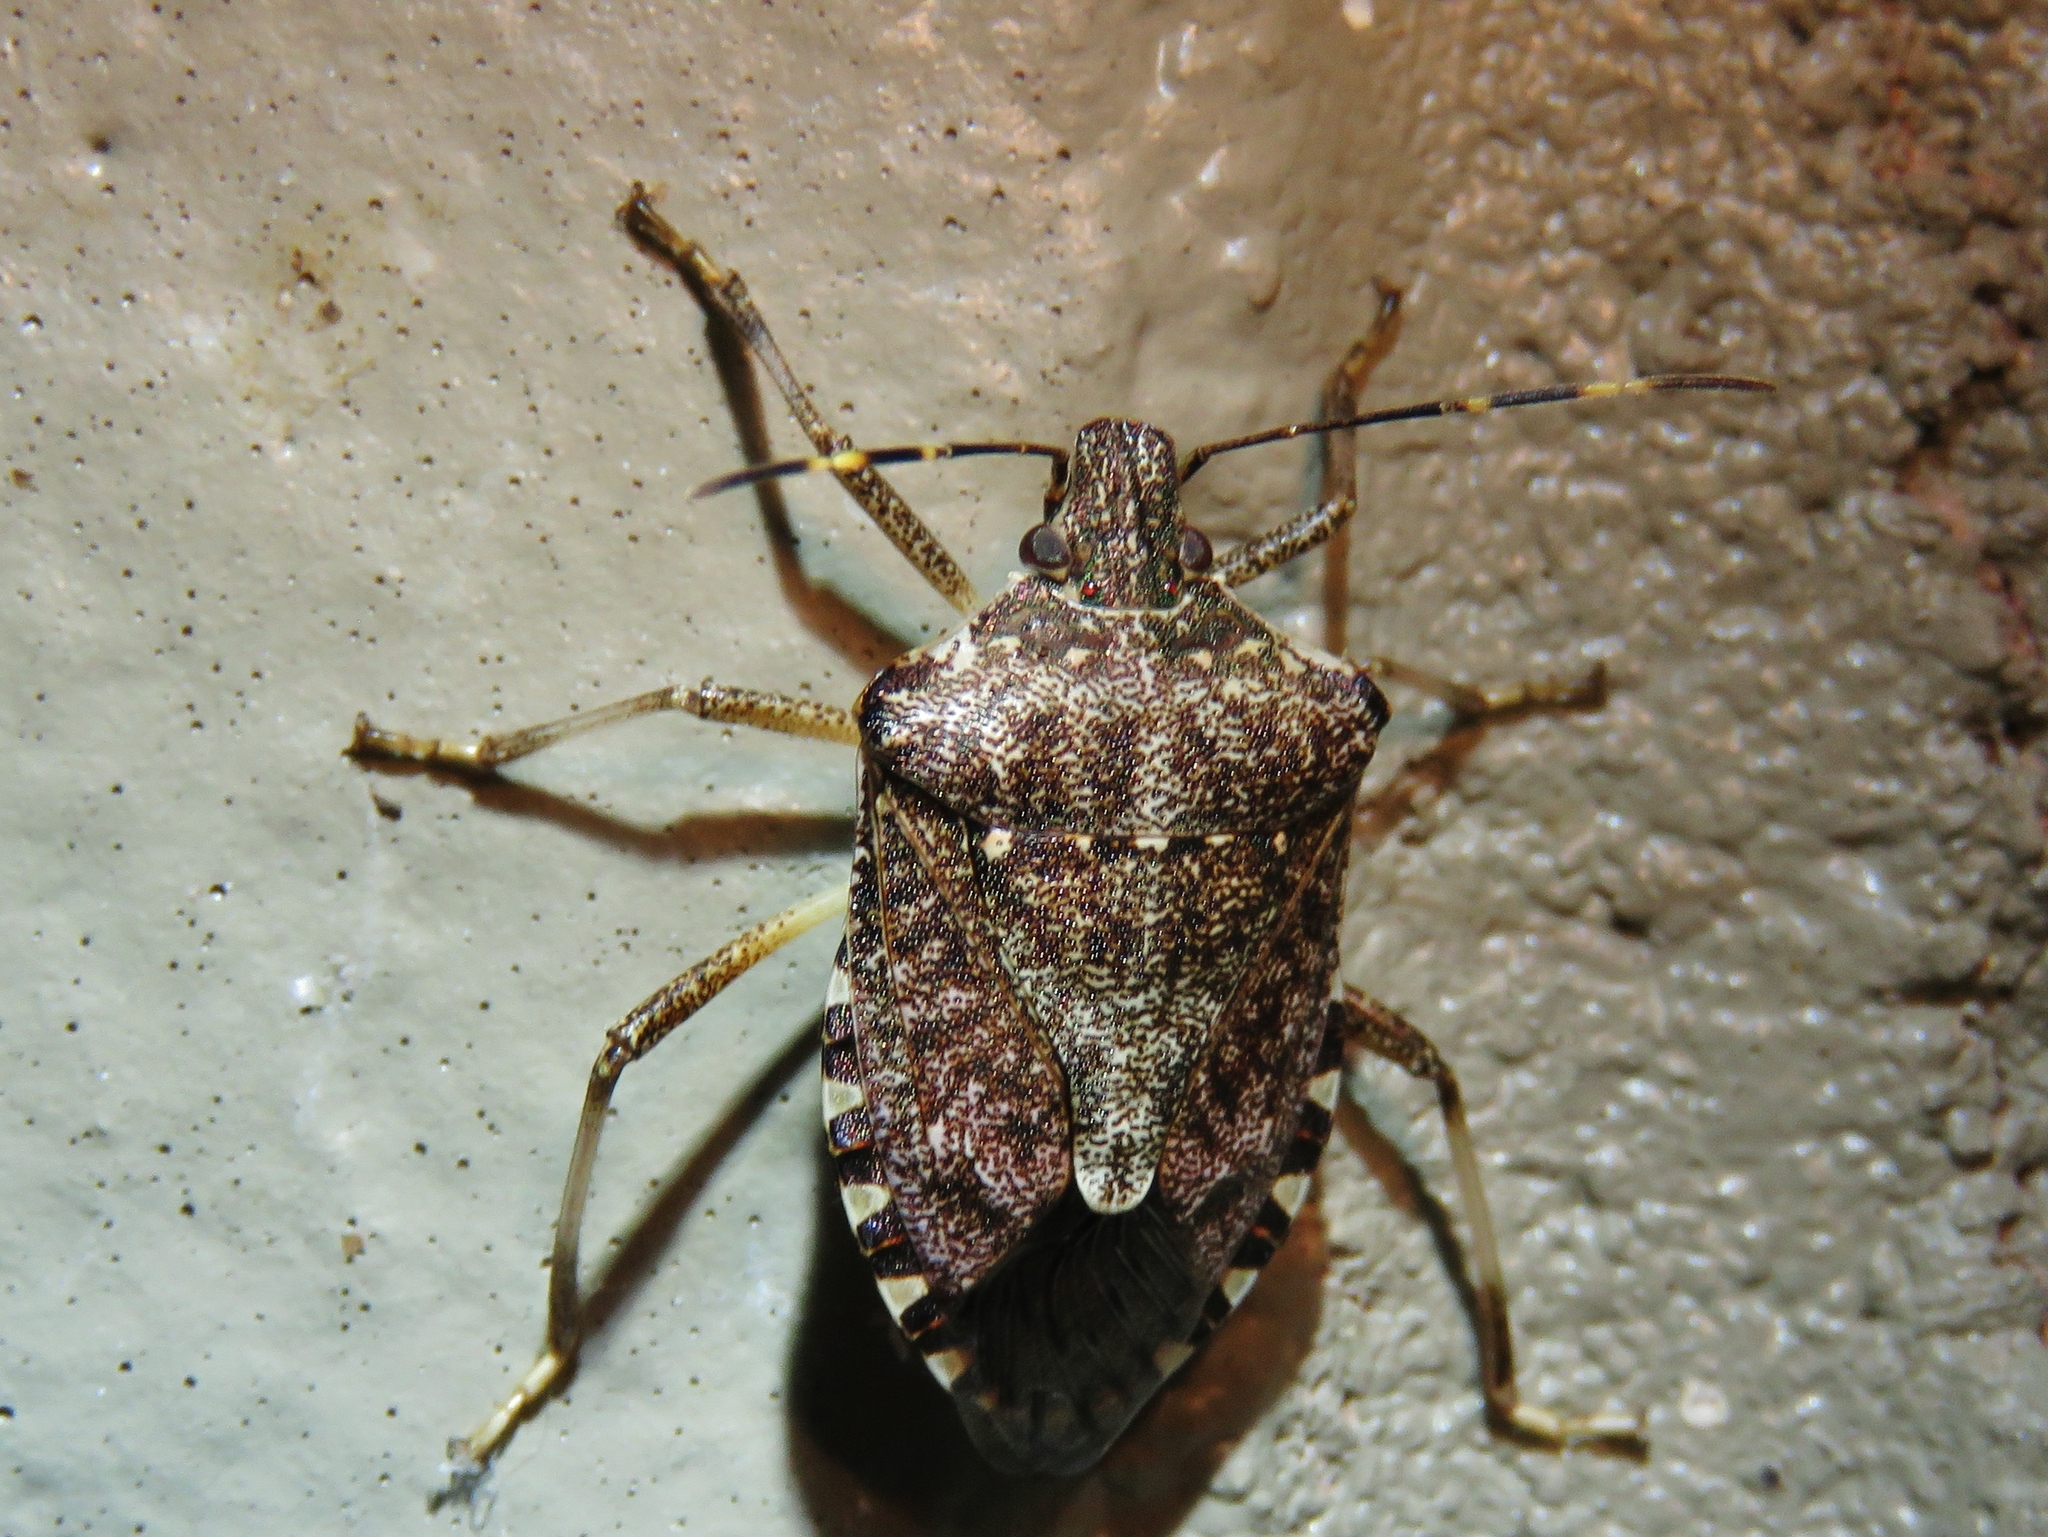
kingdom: Animalia
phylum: Arthropoda
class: Insecta
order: Hemiptera
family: Pentatomidae
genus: Halyomorpha
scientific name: Halyomorpha halys
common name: Brown marmorated stink bug
